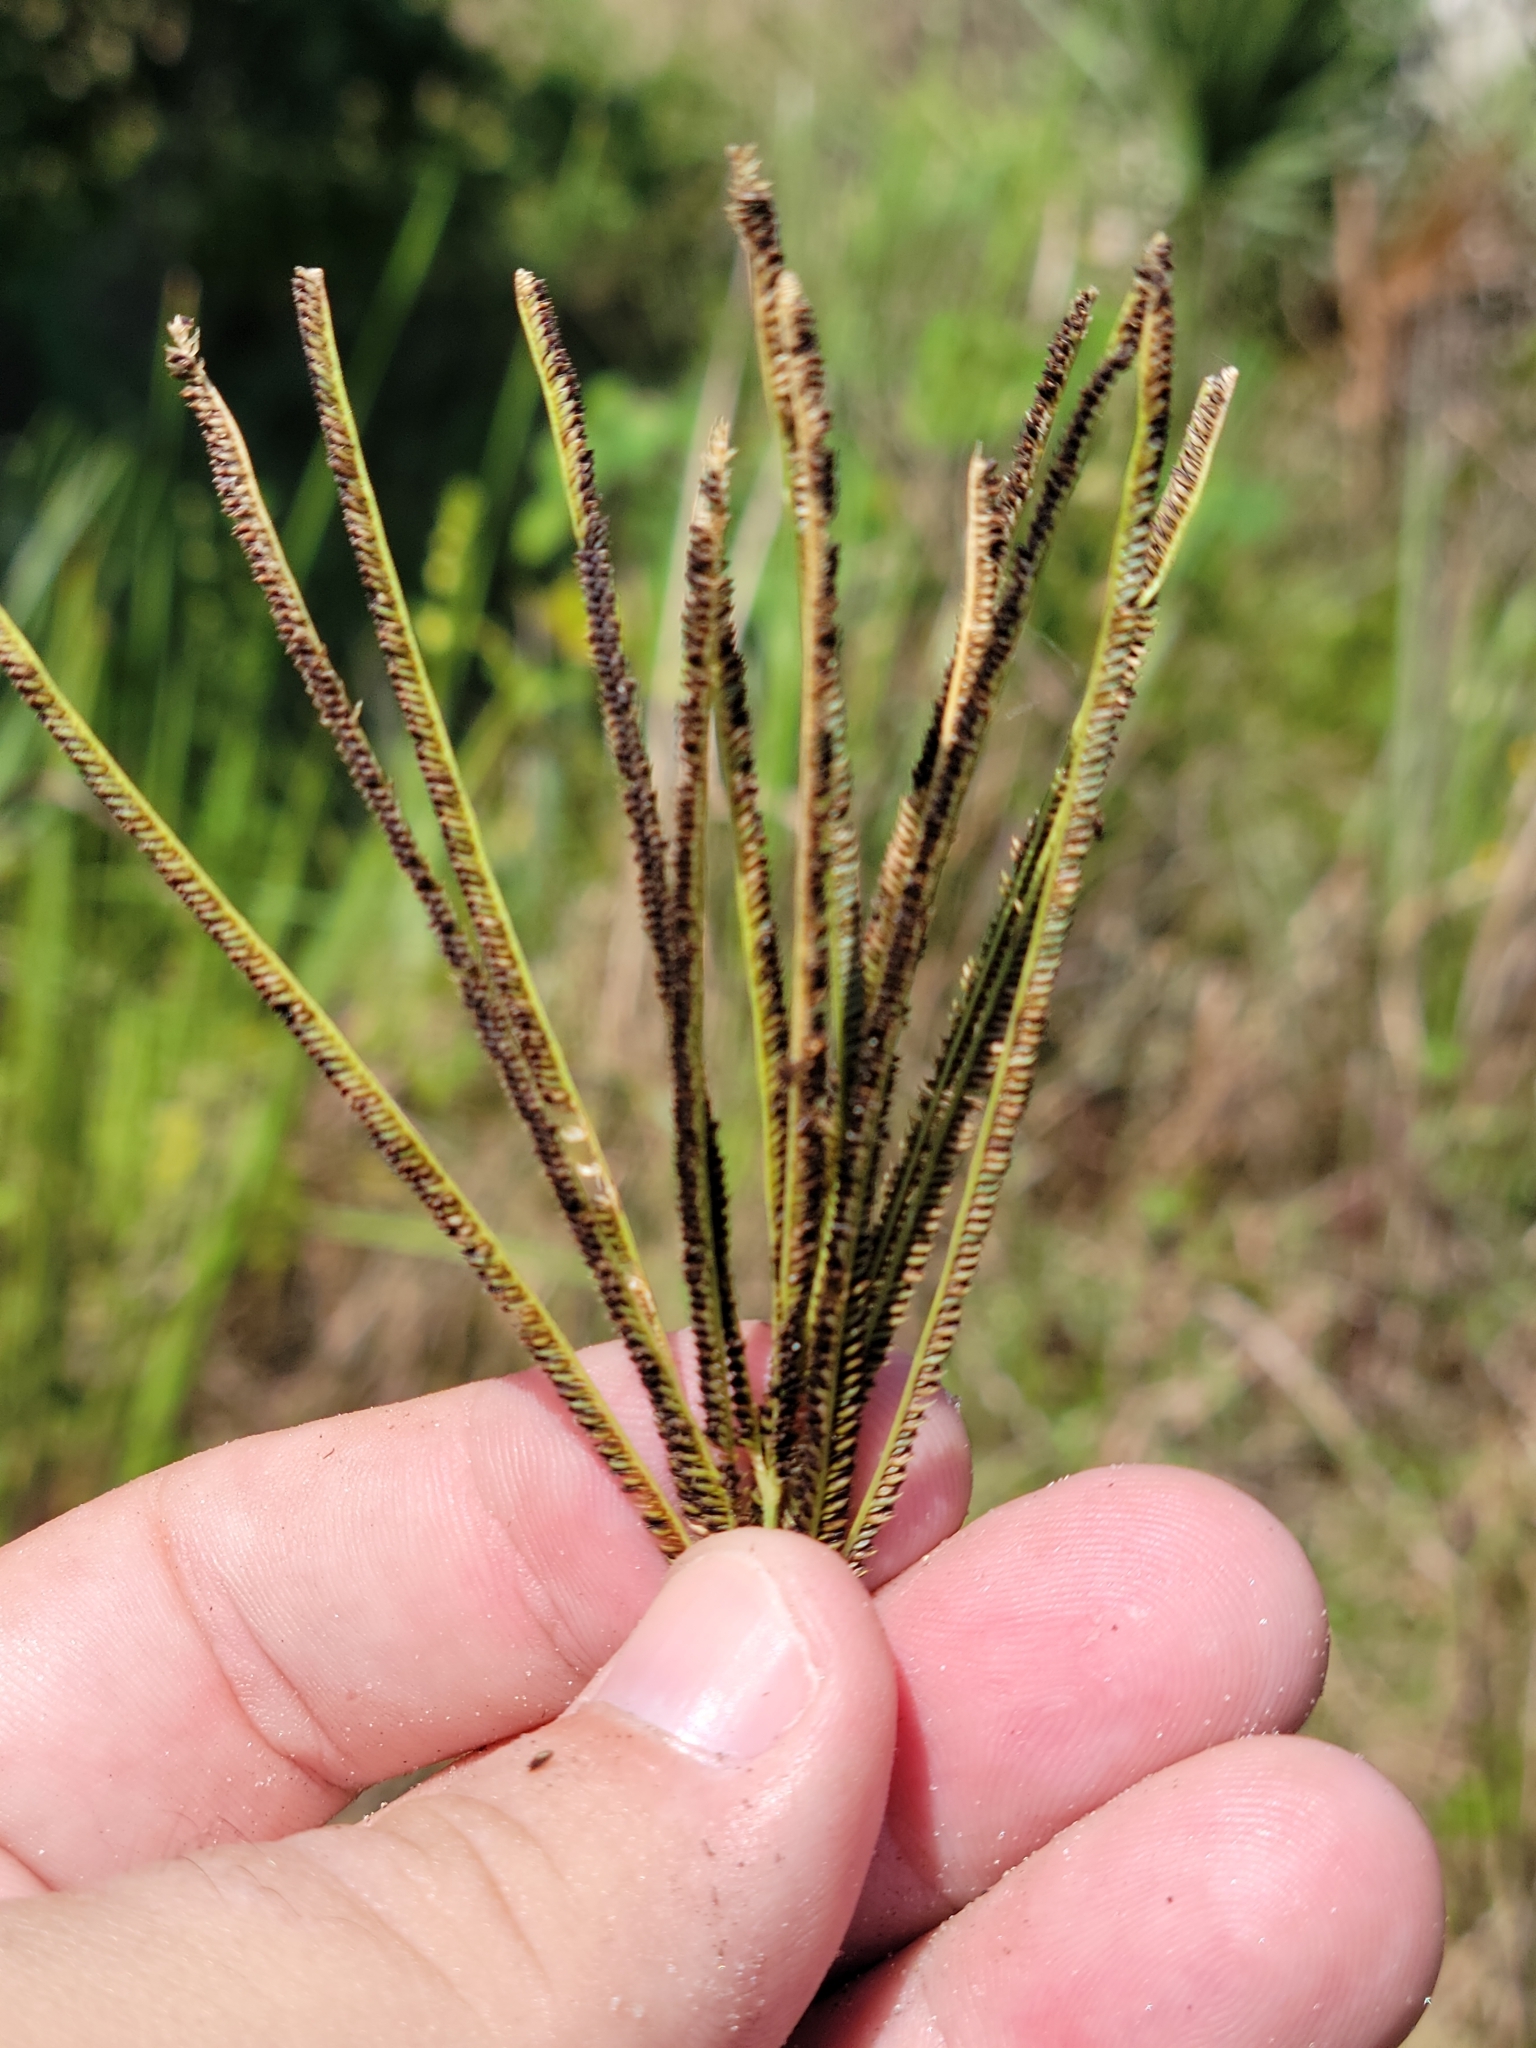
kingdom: Plantae
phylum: Tracheophyta
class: Liliopsida
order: Poales
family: Poaceae
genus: Eustachys
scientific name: Eustachys glauca
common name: Saltmarsh finger grass
